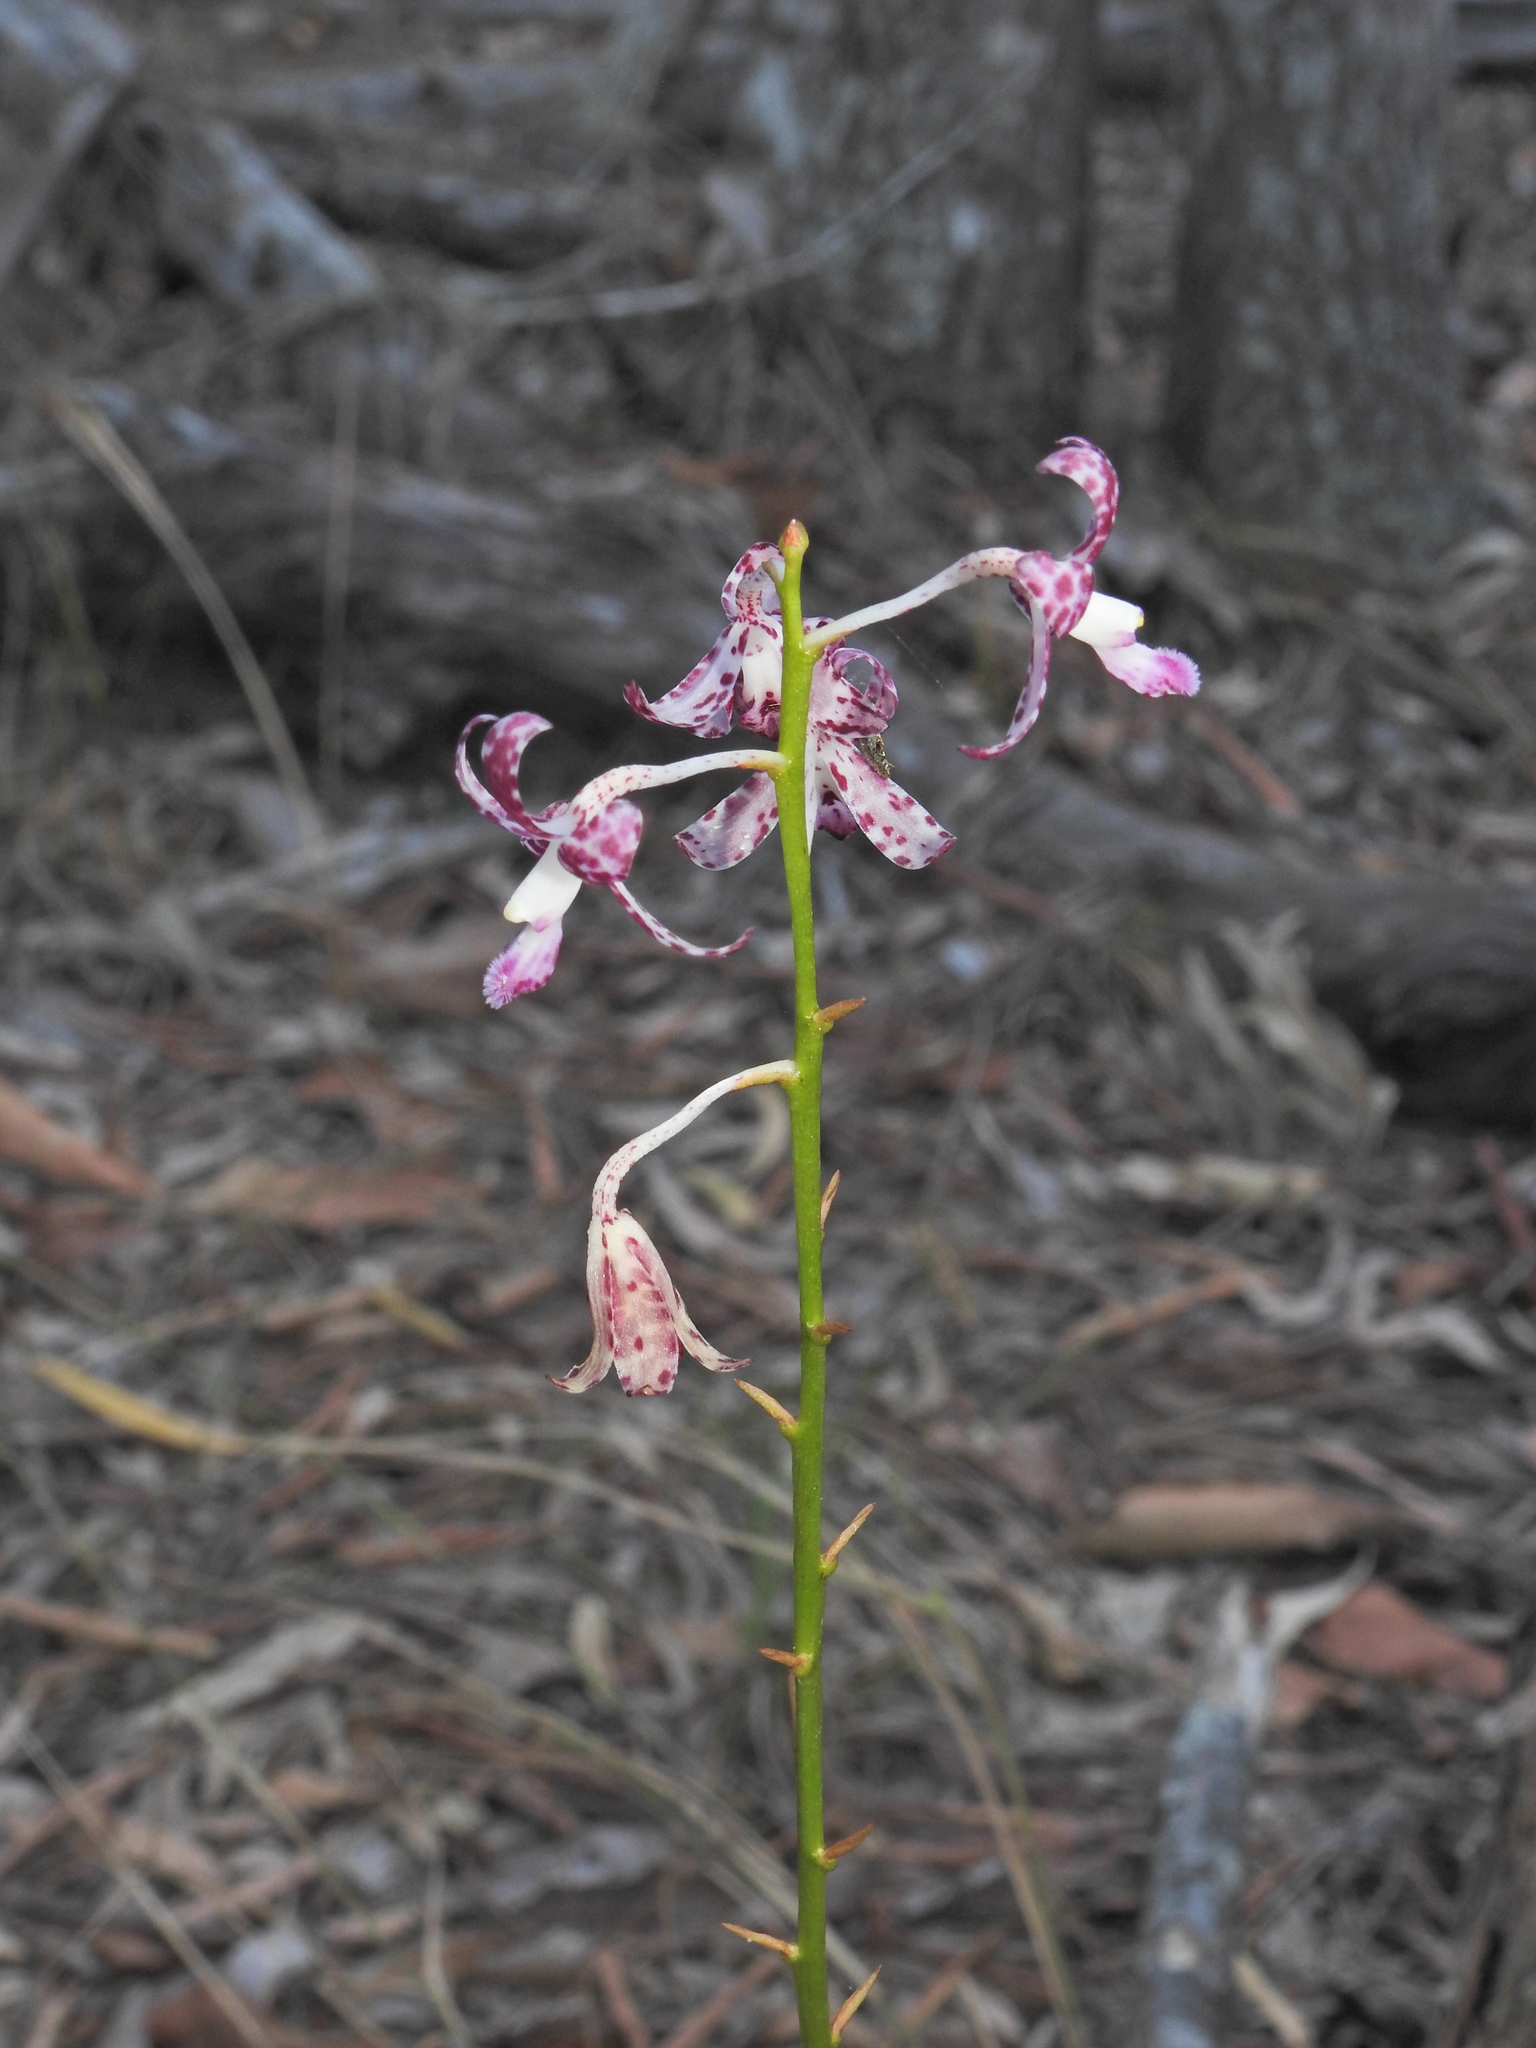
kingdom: Plantae
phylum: Tracheophyta
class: Liliopsida
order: Asparagales
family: Orchidaceae
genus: Dipodium
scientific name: Dipodium variegatum
